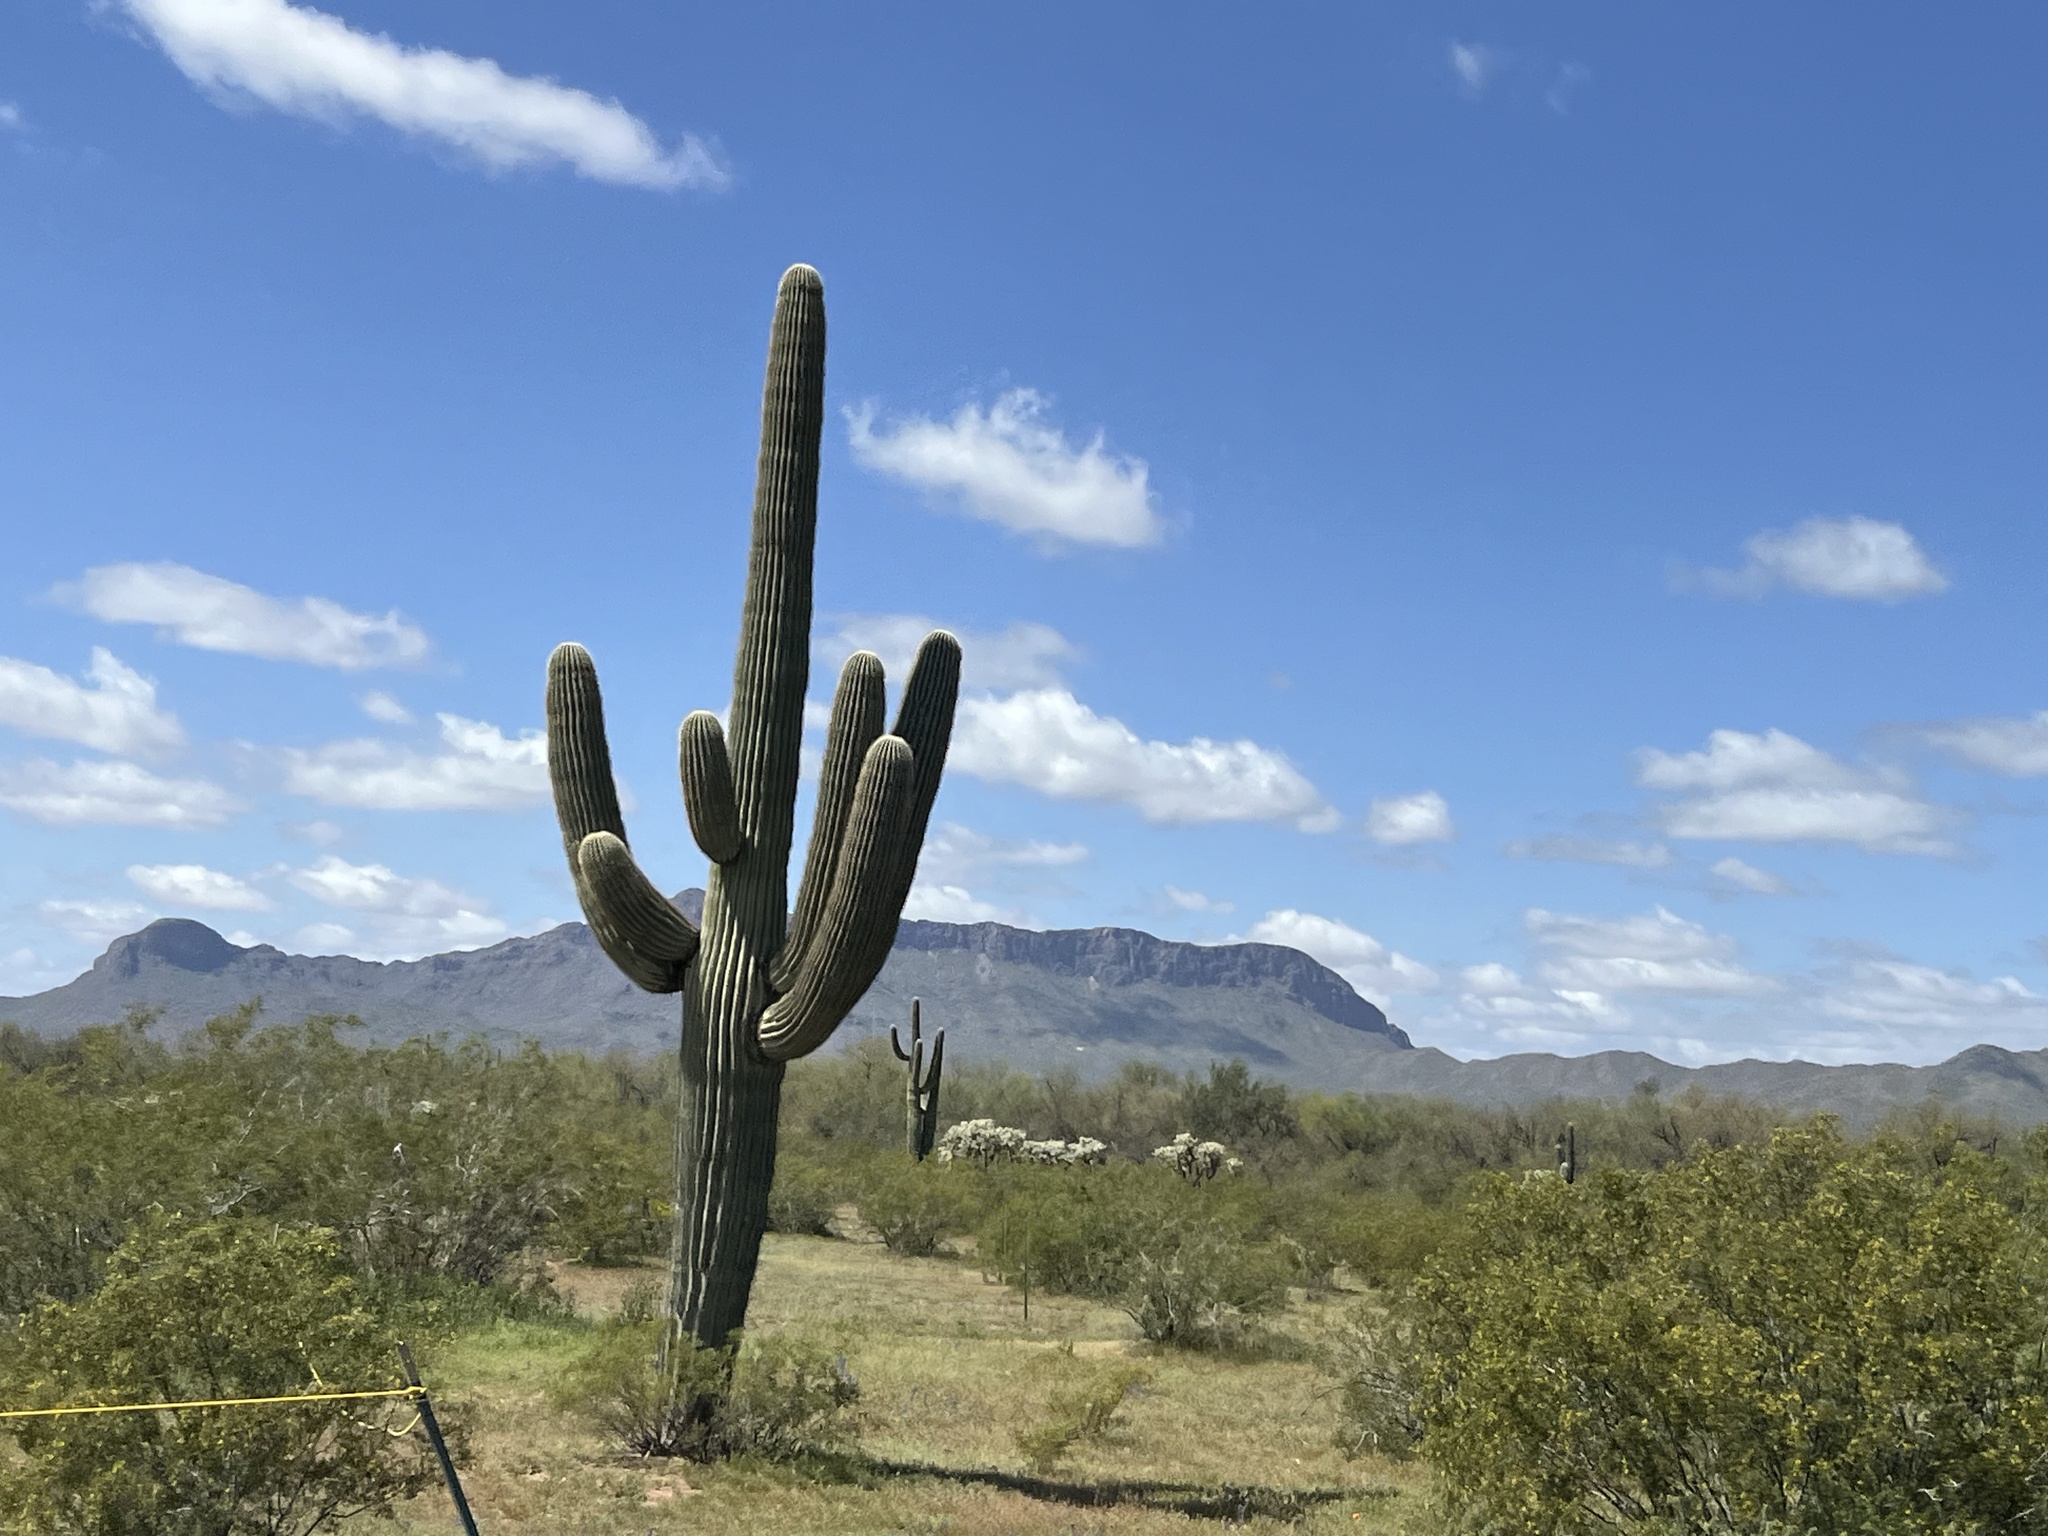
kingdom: Plantae
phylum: Tracheophyta
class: Magnoliopsida
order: Caryophyllales
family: Cactaceae
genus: Carnegiea
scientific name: Carnegiea gigantea
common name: Saguaro
